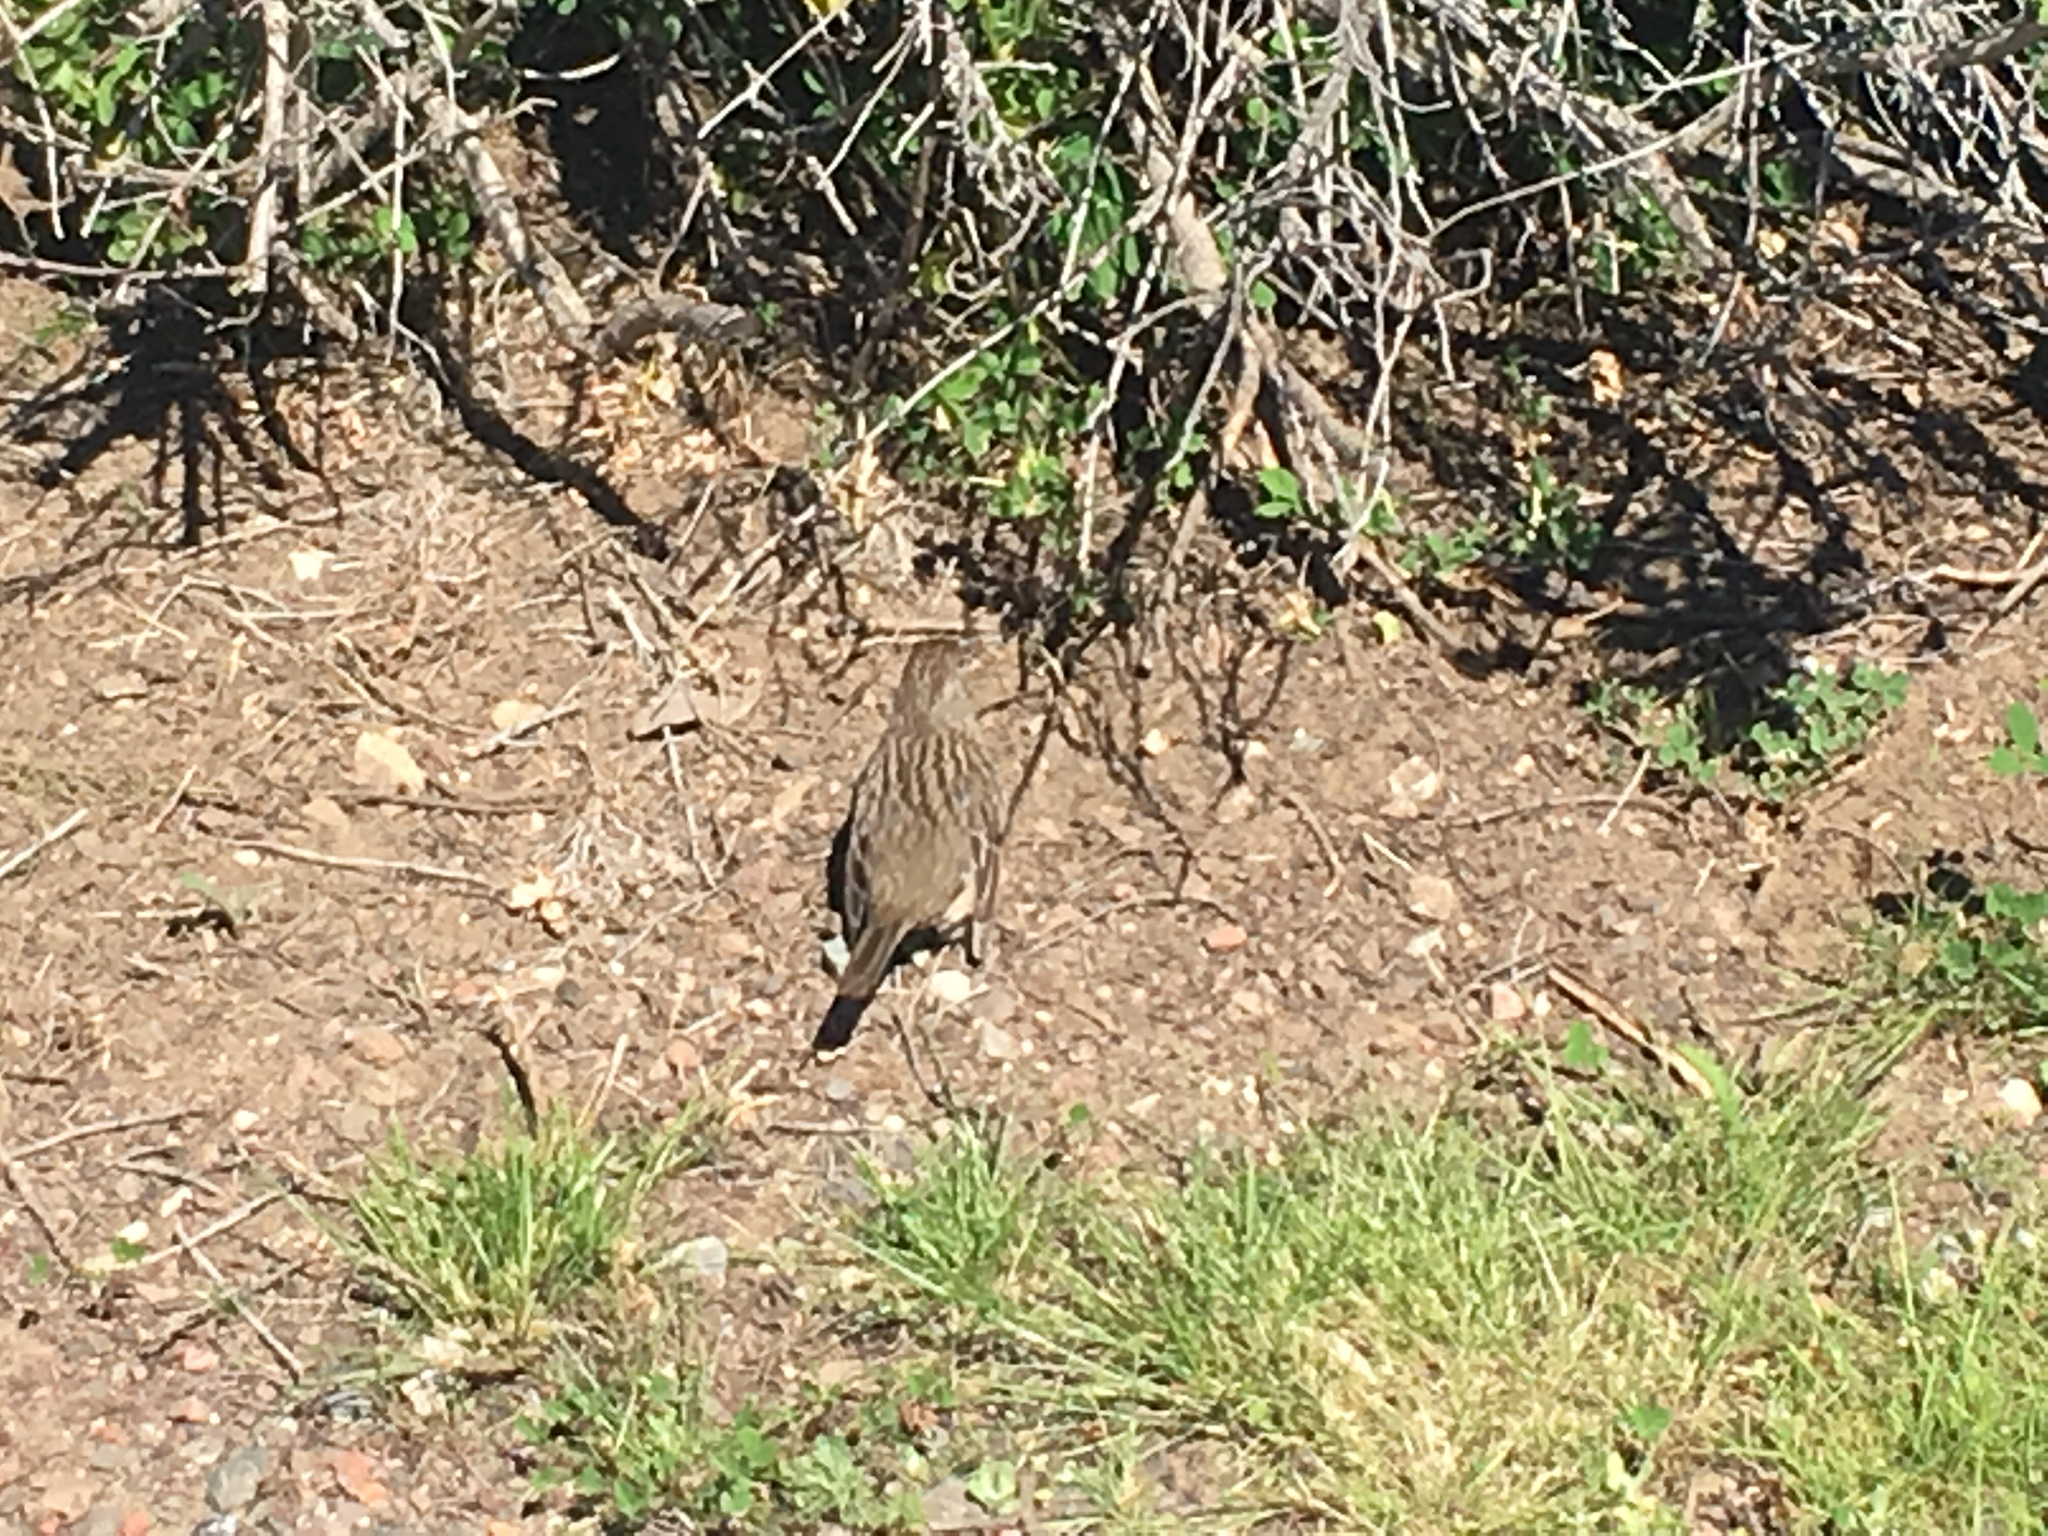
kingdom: Animalia
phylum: Chordata
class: Aves
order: Passeriformes
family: Passerellidae
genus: Zonotrichia
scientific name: Zonotrichia atricapilla
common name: Golden-crowned sparrow
